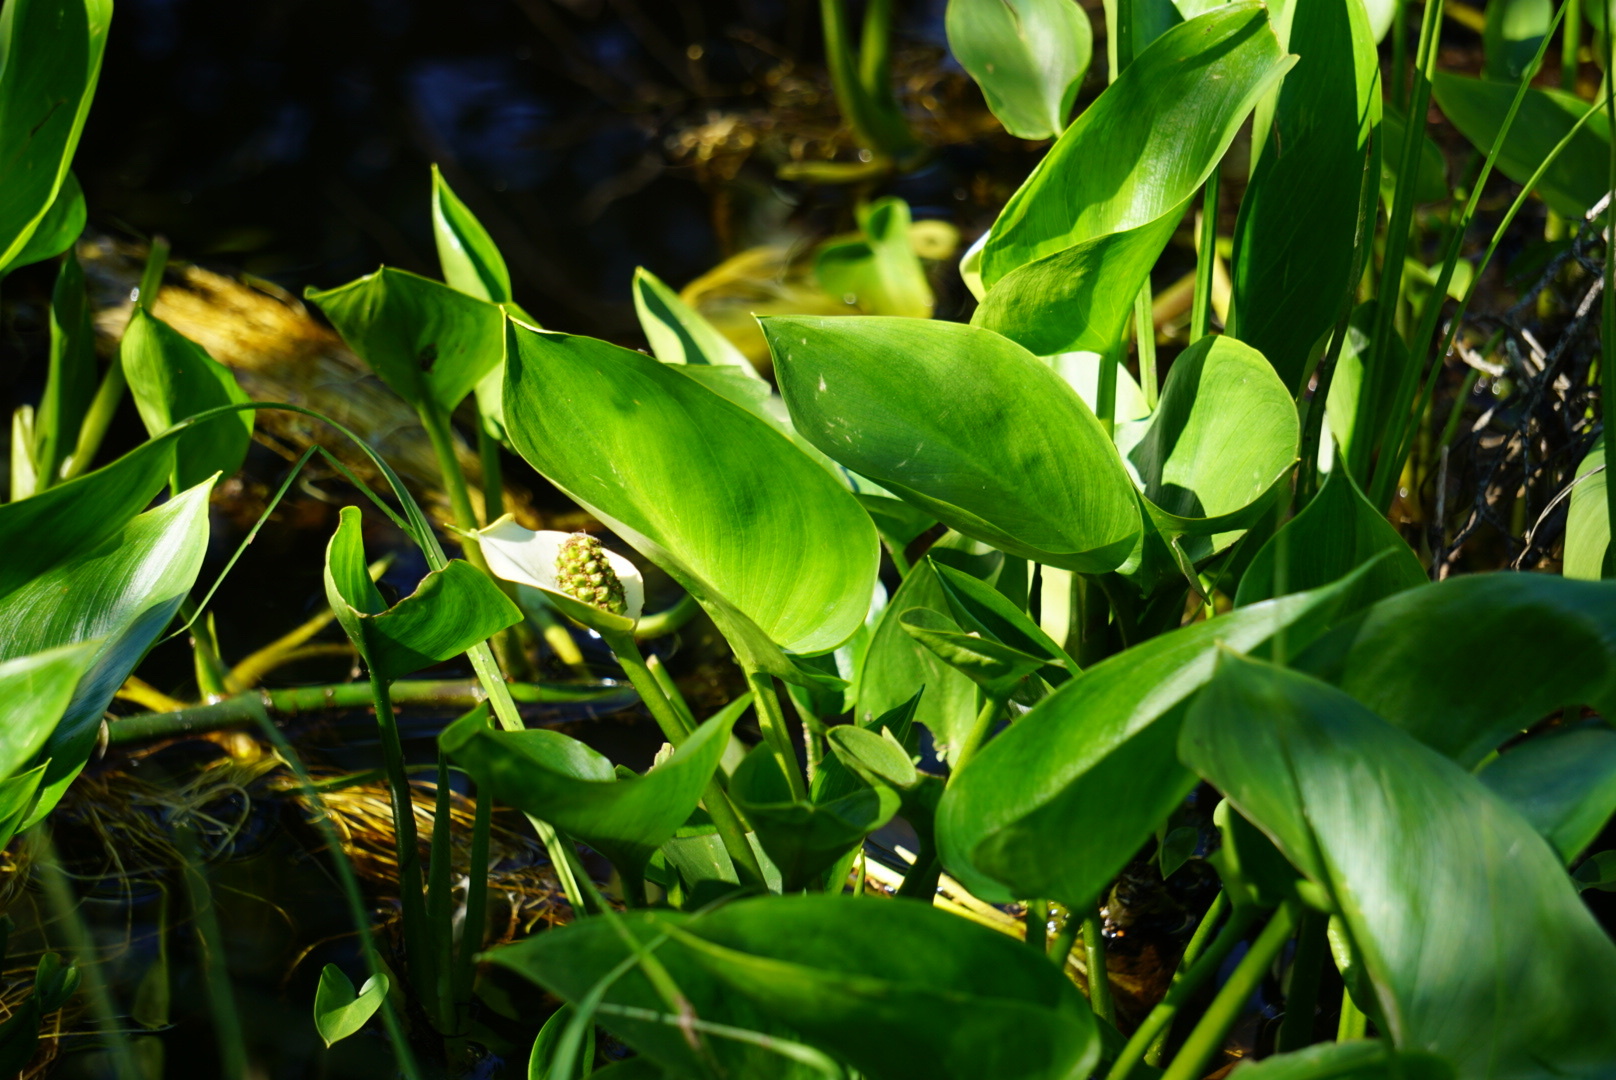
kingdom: Plantae
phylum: Tracheophyta
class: Liliopsida
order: Alismatales
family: Araceae
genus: Calla
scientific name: Calla palustris
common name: Bog arum
